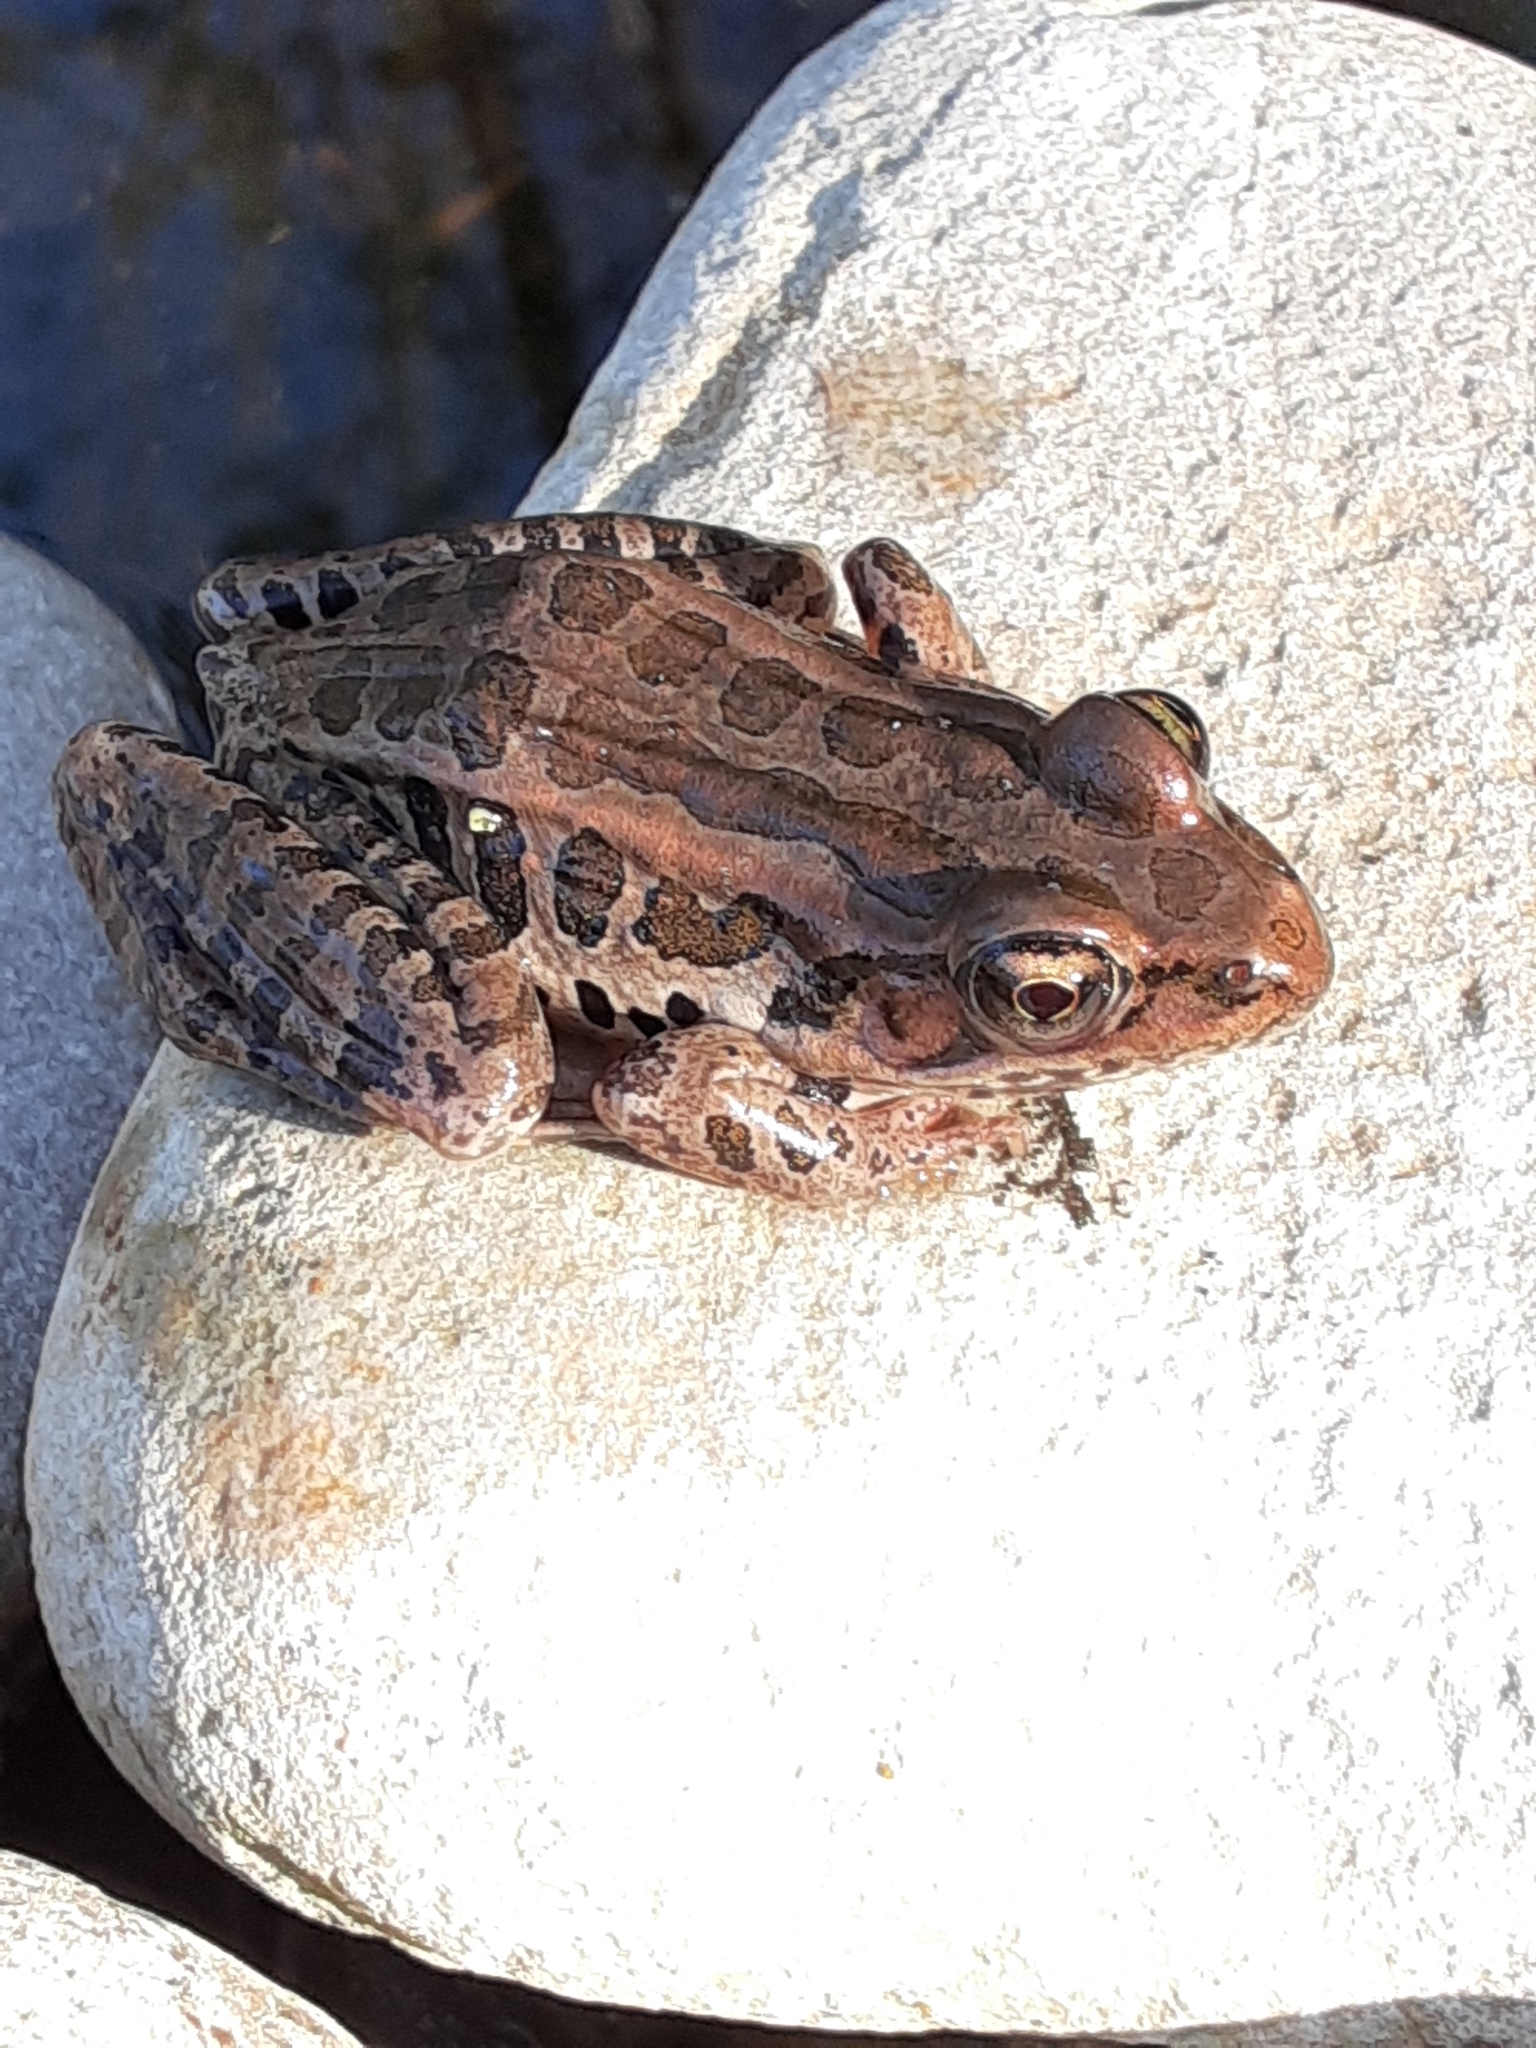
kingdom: Animalia
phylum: Chordata
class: Amphibia
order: Anura
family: Ranidae
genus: Lithobates
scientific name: Lithobates palustris
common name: Pickerel frog
